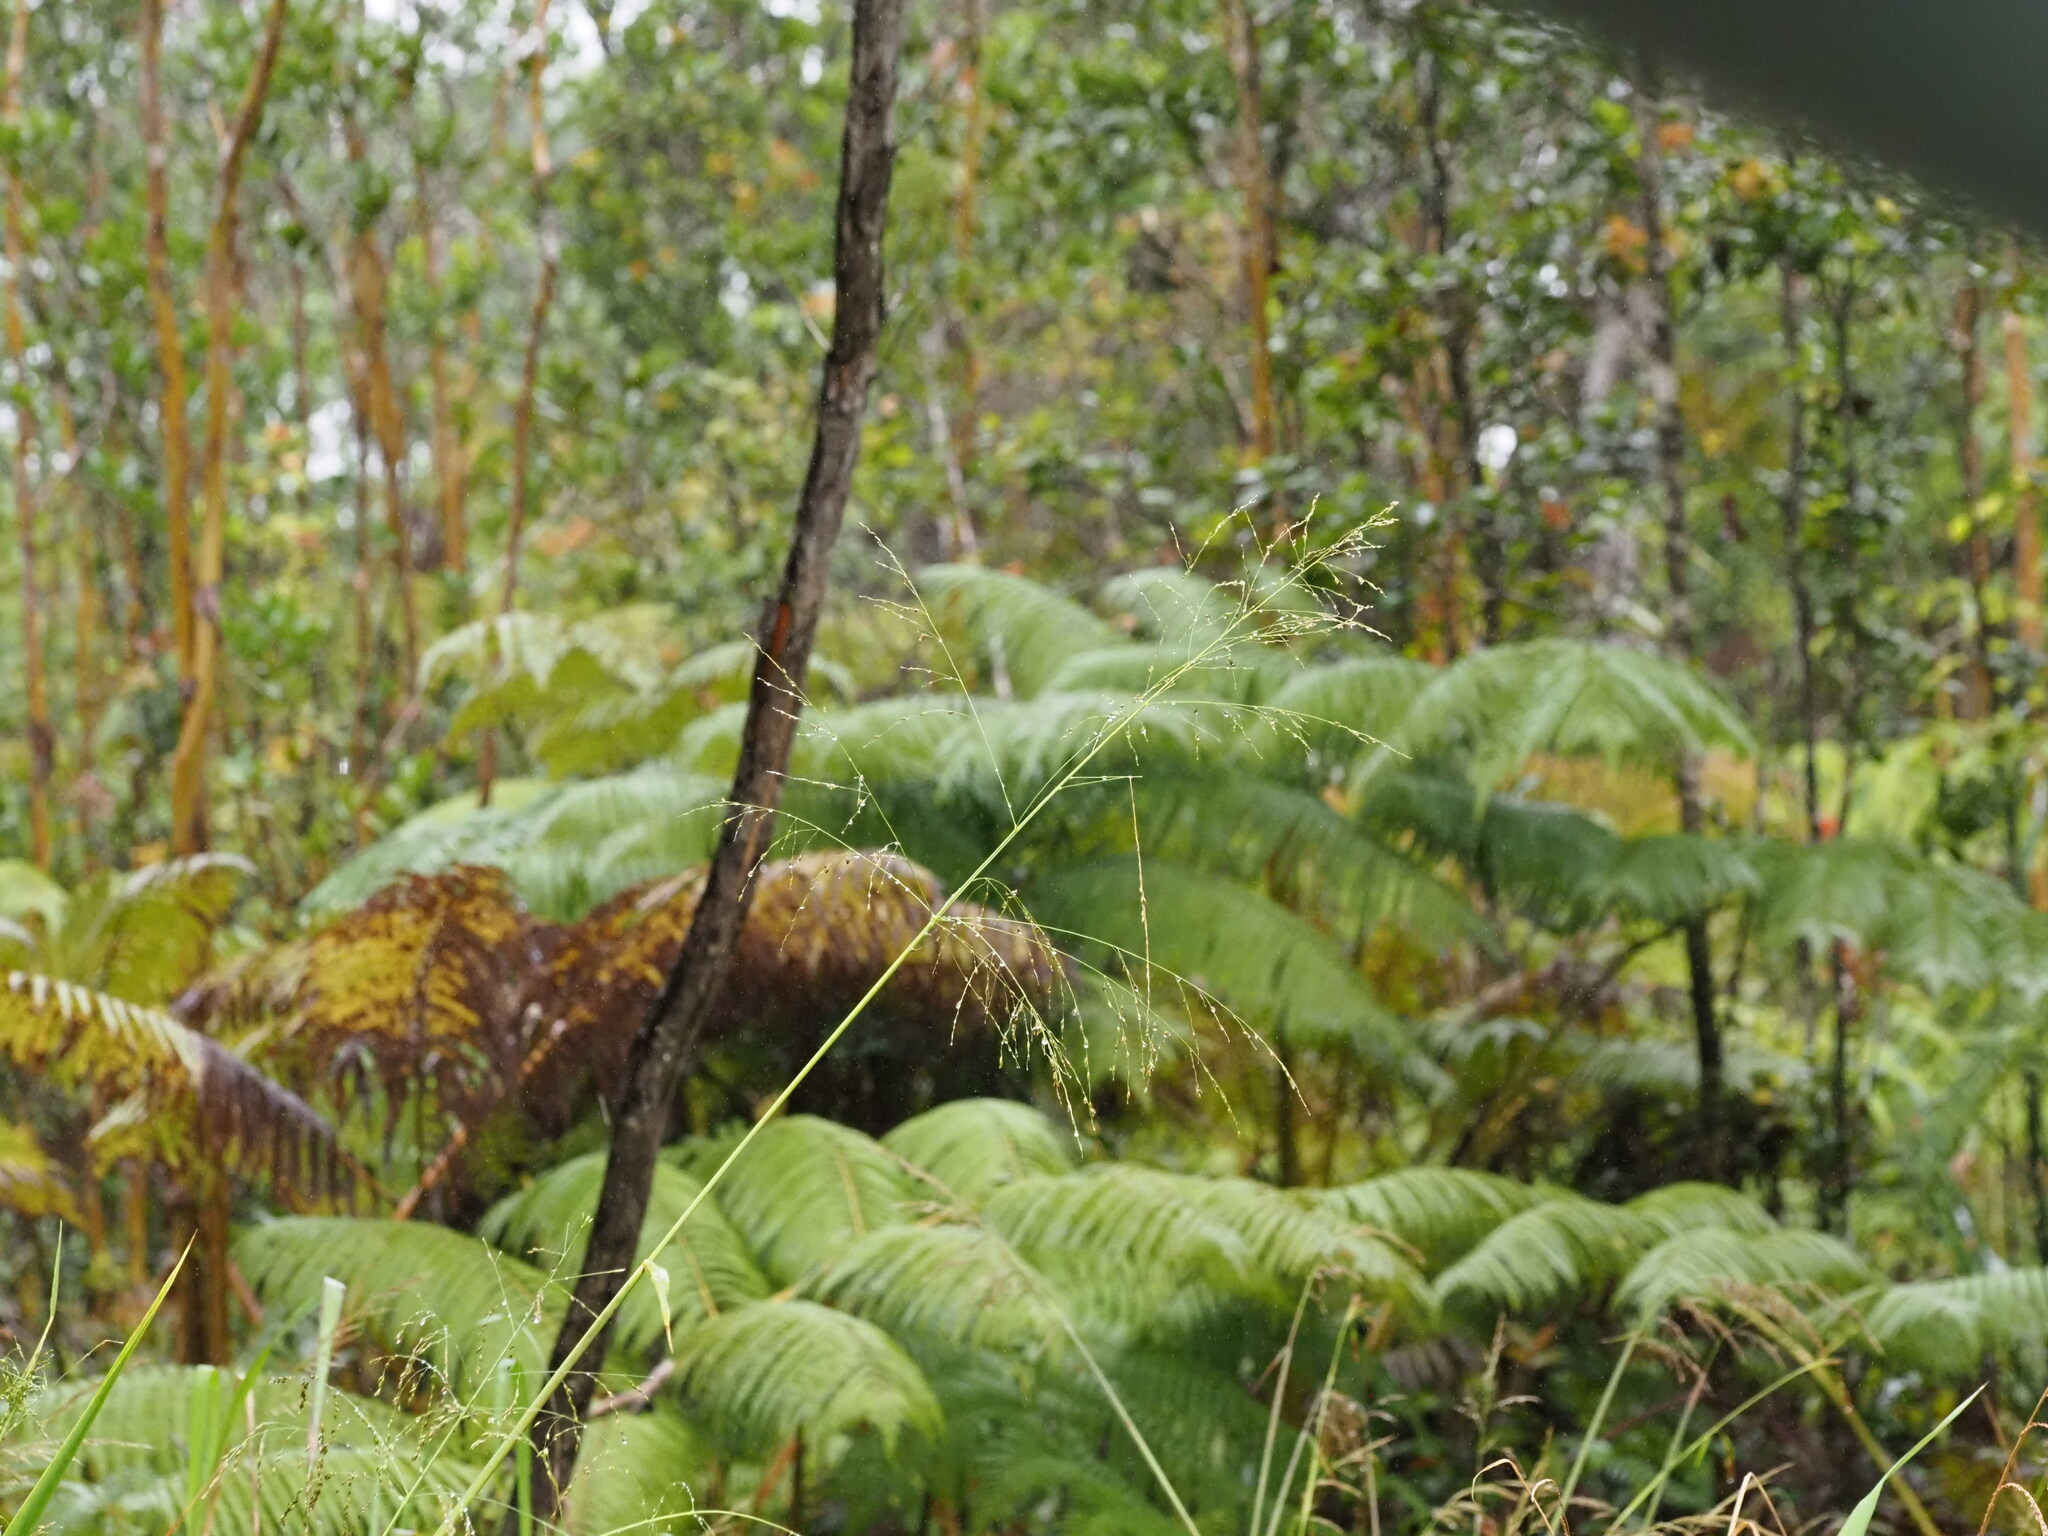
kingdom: Plantae
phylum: Tracheophyta
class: Liliopsida
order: Poales
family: Poaceae
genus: Megathyrsus
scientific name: Megathyrsus maximus
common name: Guineagrass
